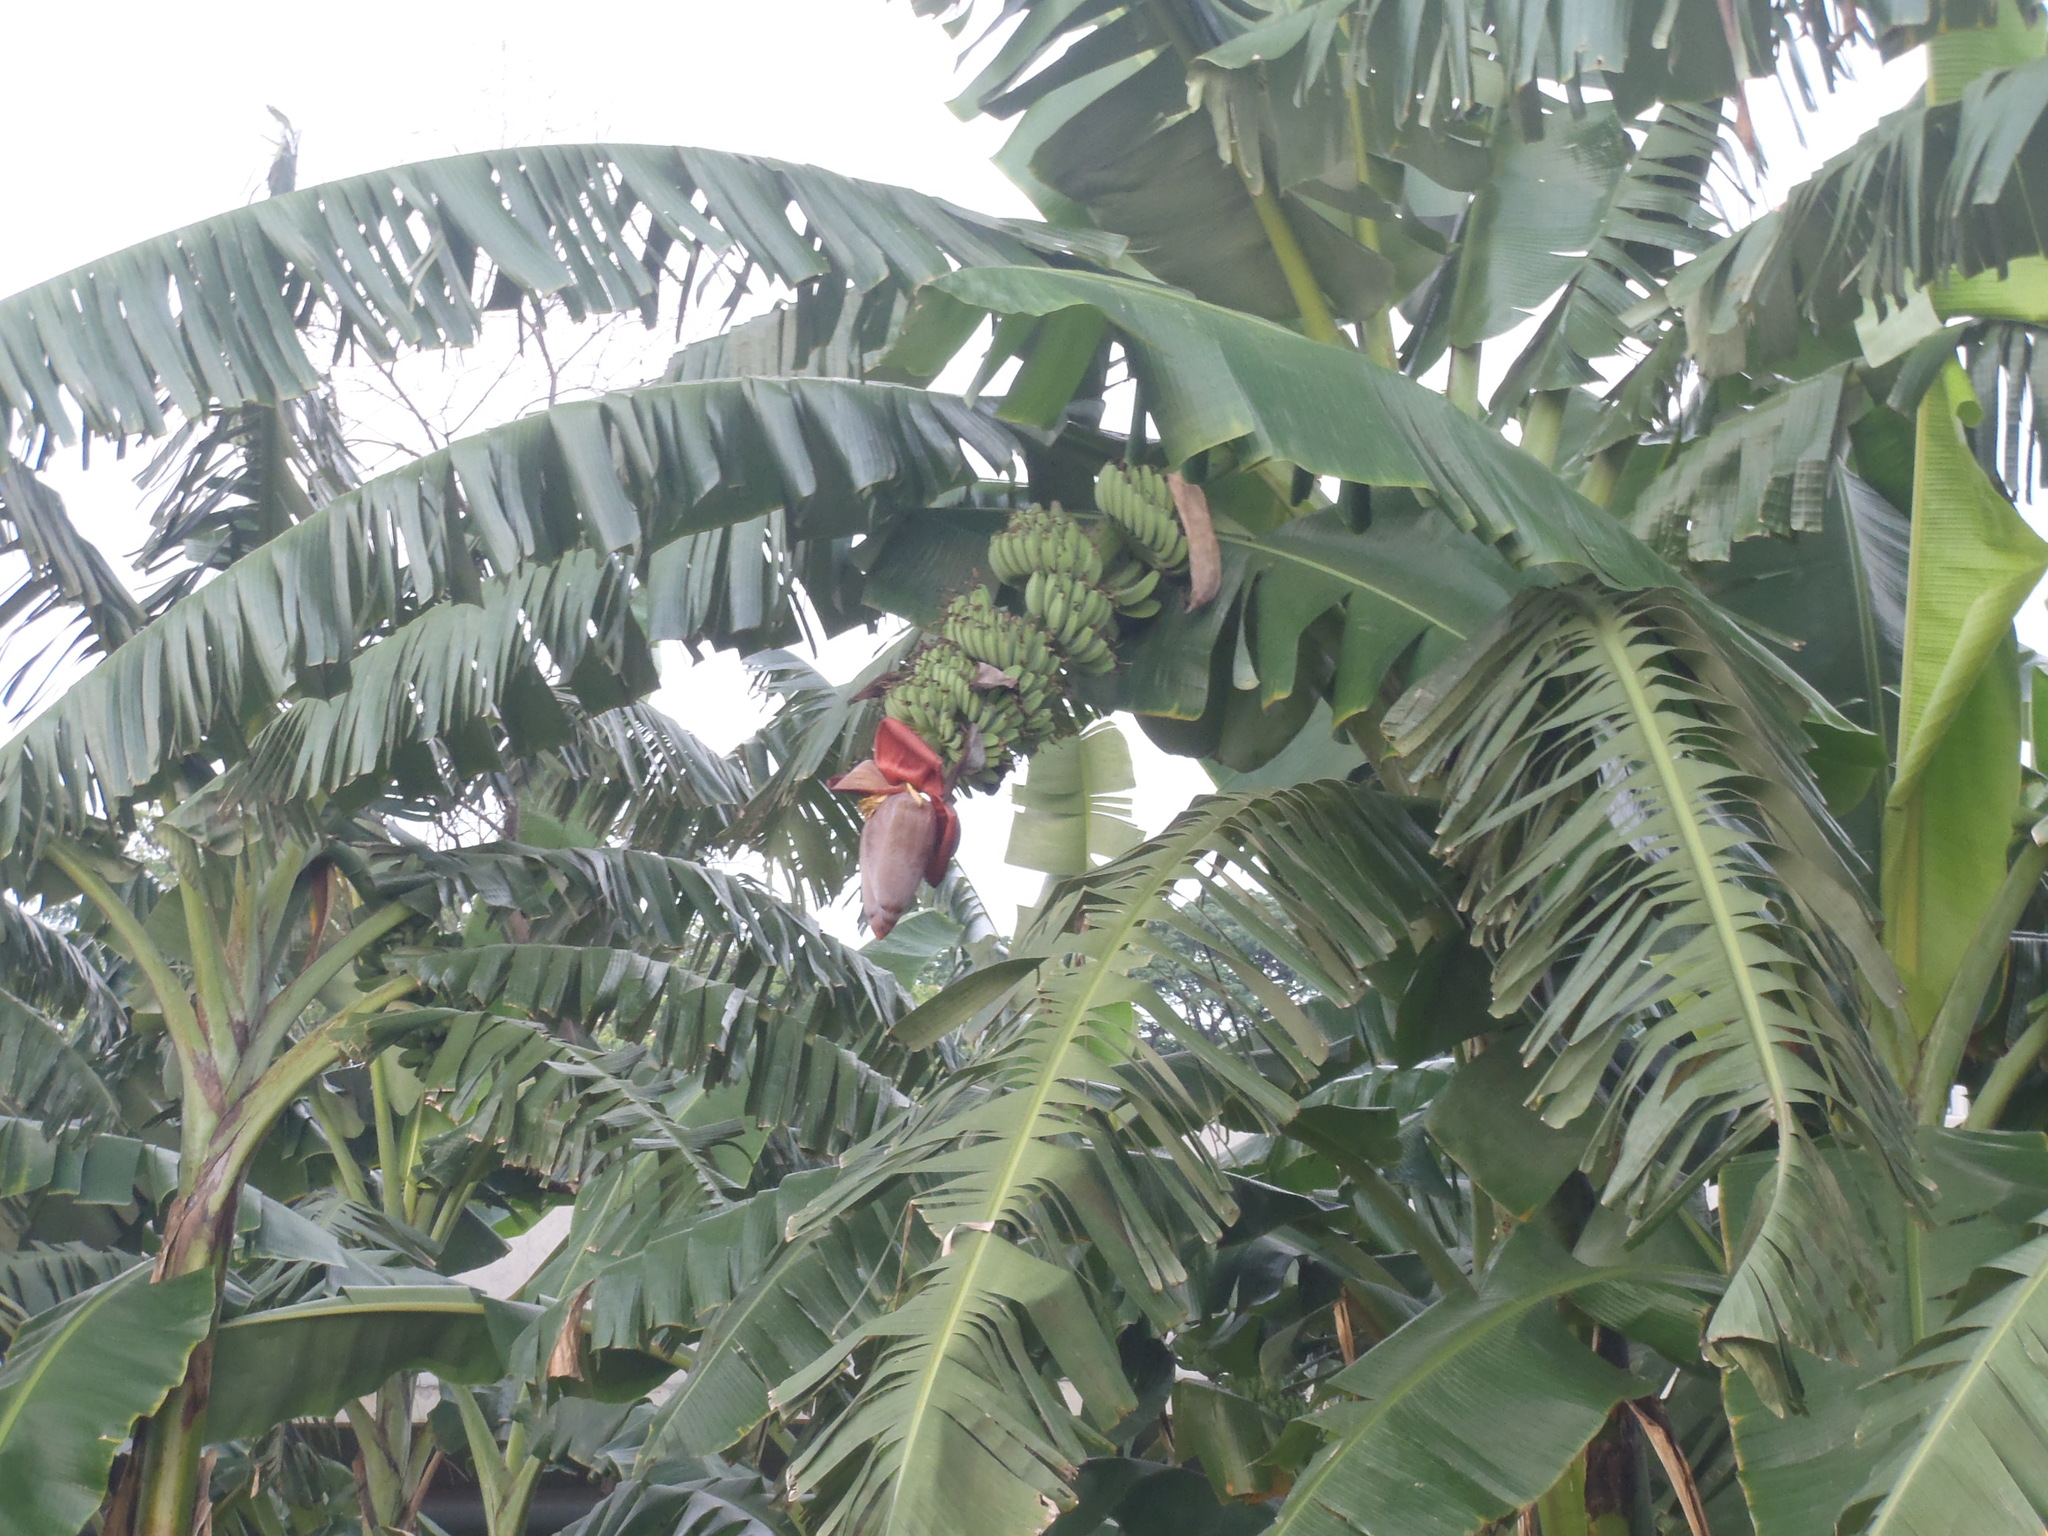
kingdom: Plantae
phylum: Tracheophyta
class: Liliopsida
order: Zingiberales
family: Musaceae
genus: Musa
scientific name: Musa paradisiaca
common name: French plantain
